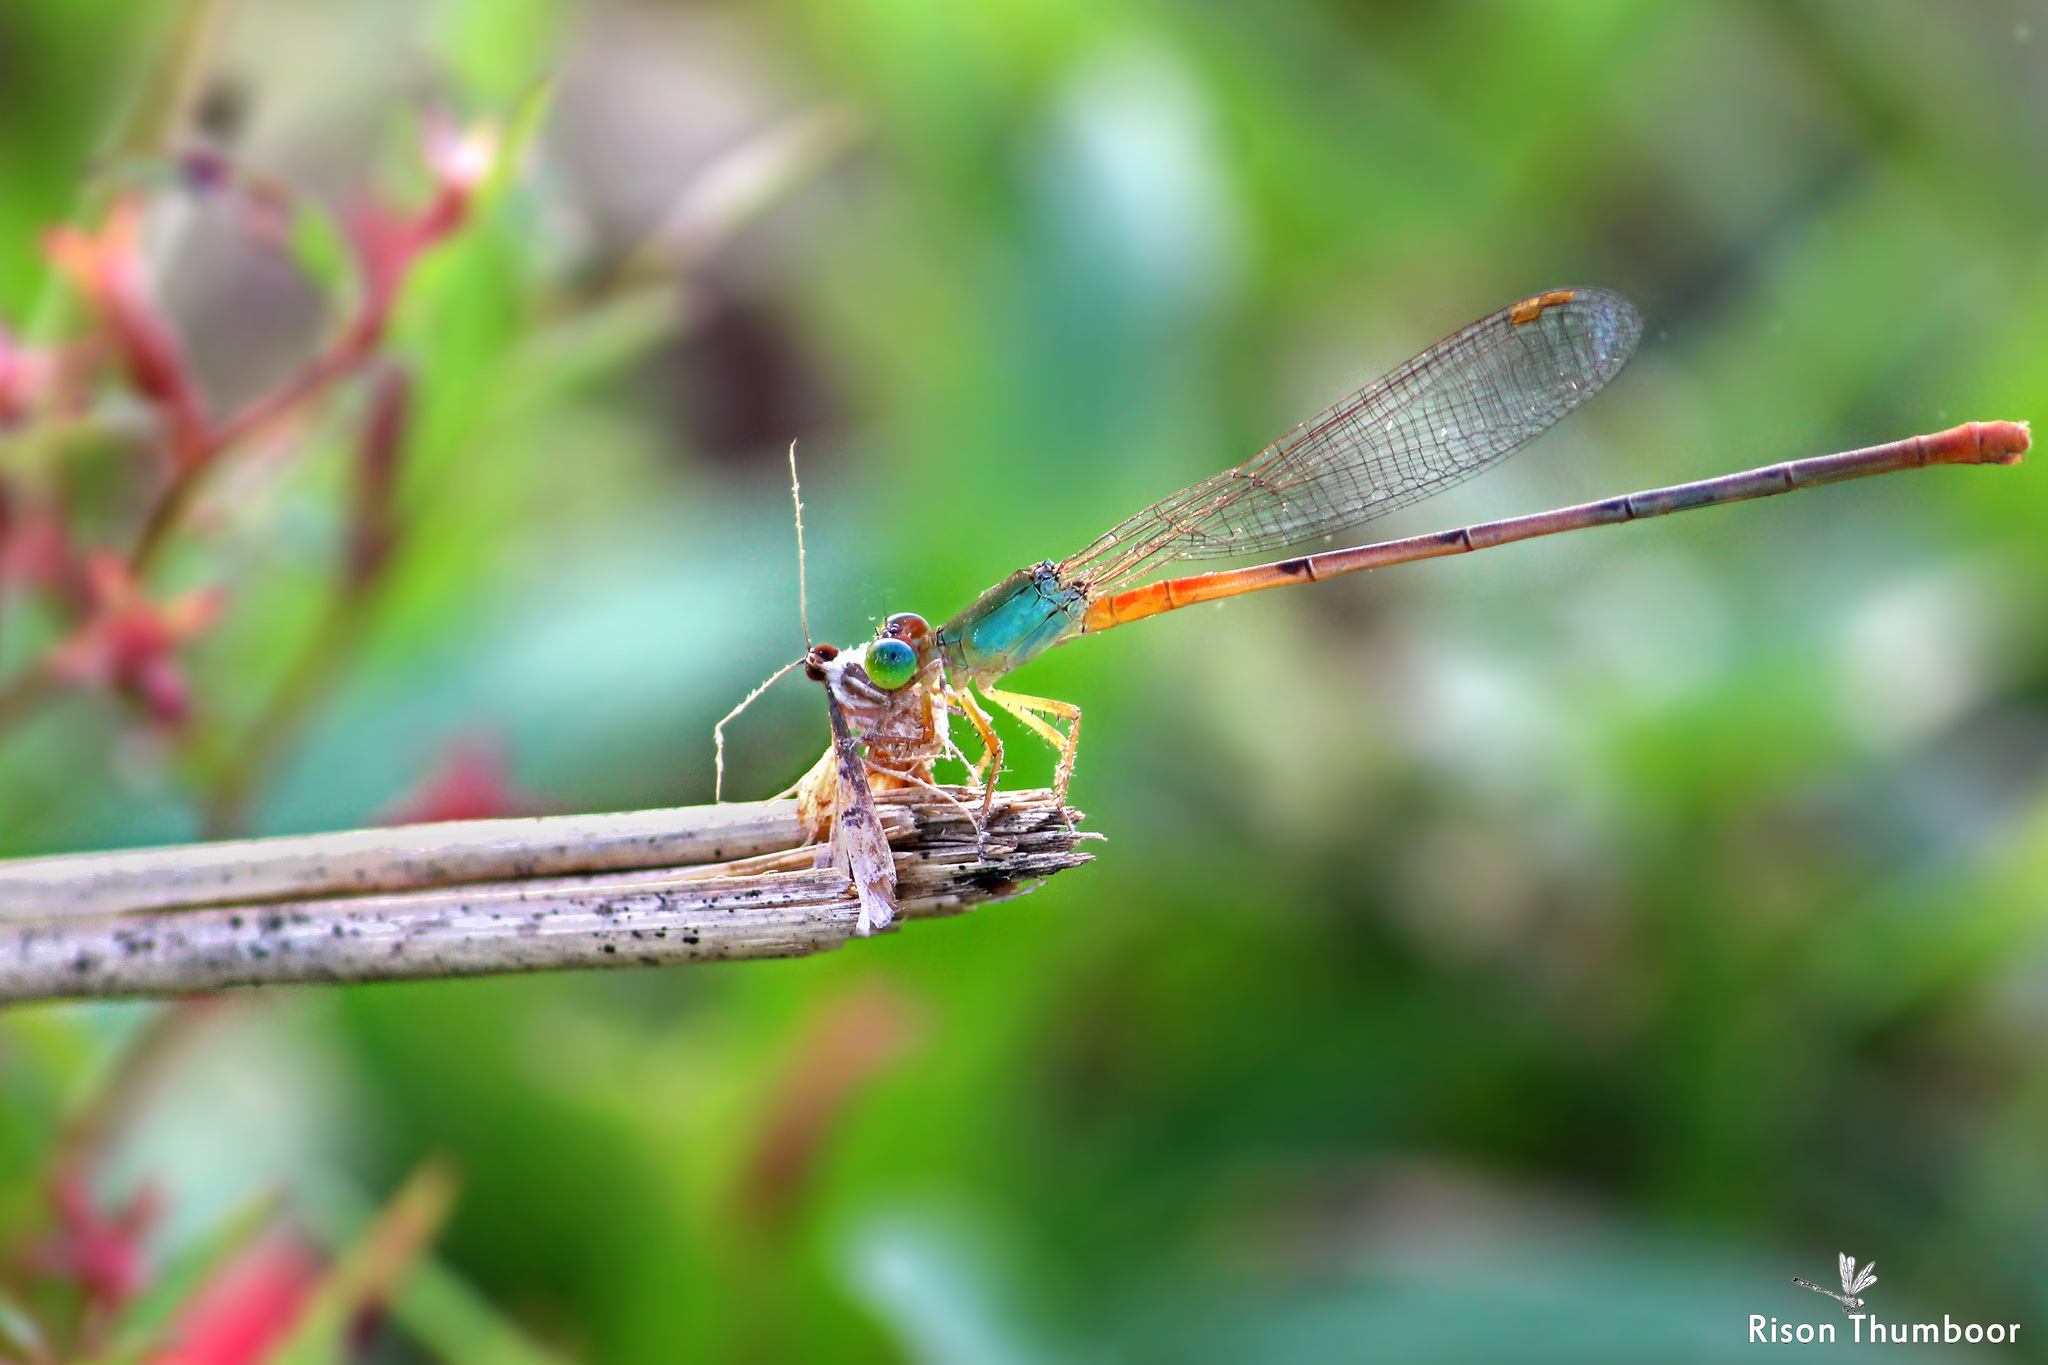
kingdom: Animalia
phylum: Arthropoda
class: Insecta
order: Odonata
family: Coenagrionidae
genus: Ceriagrion
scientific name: Ceriagrion cerinorubellum
